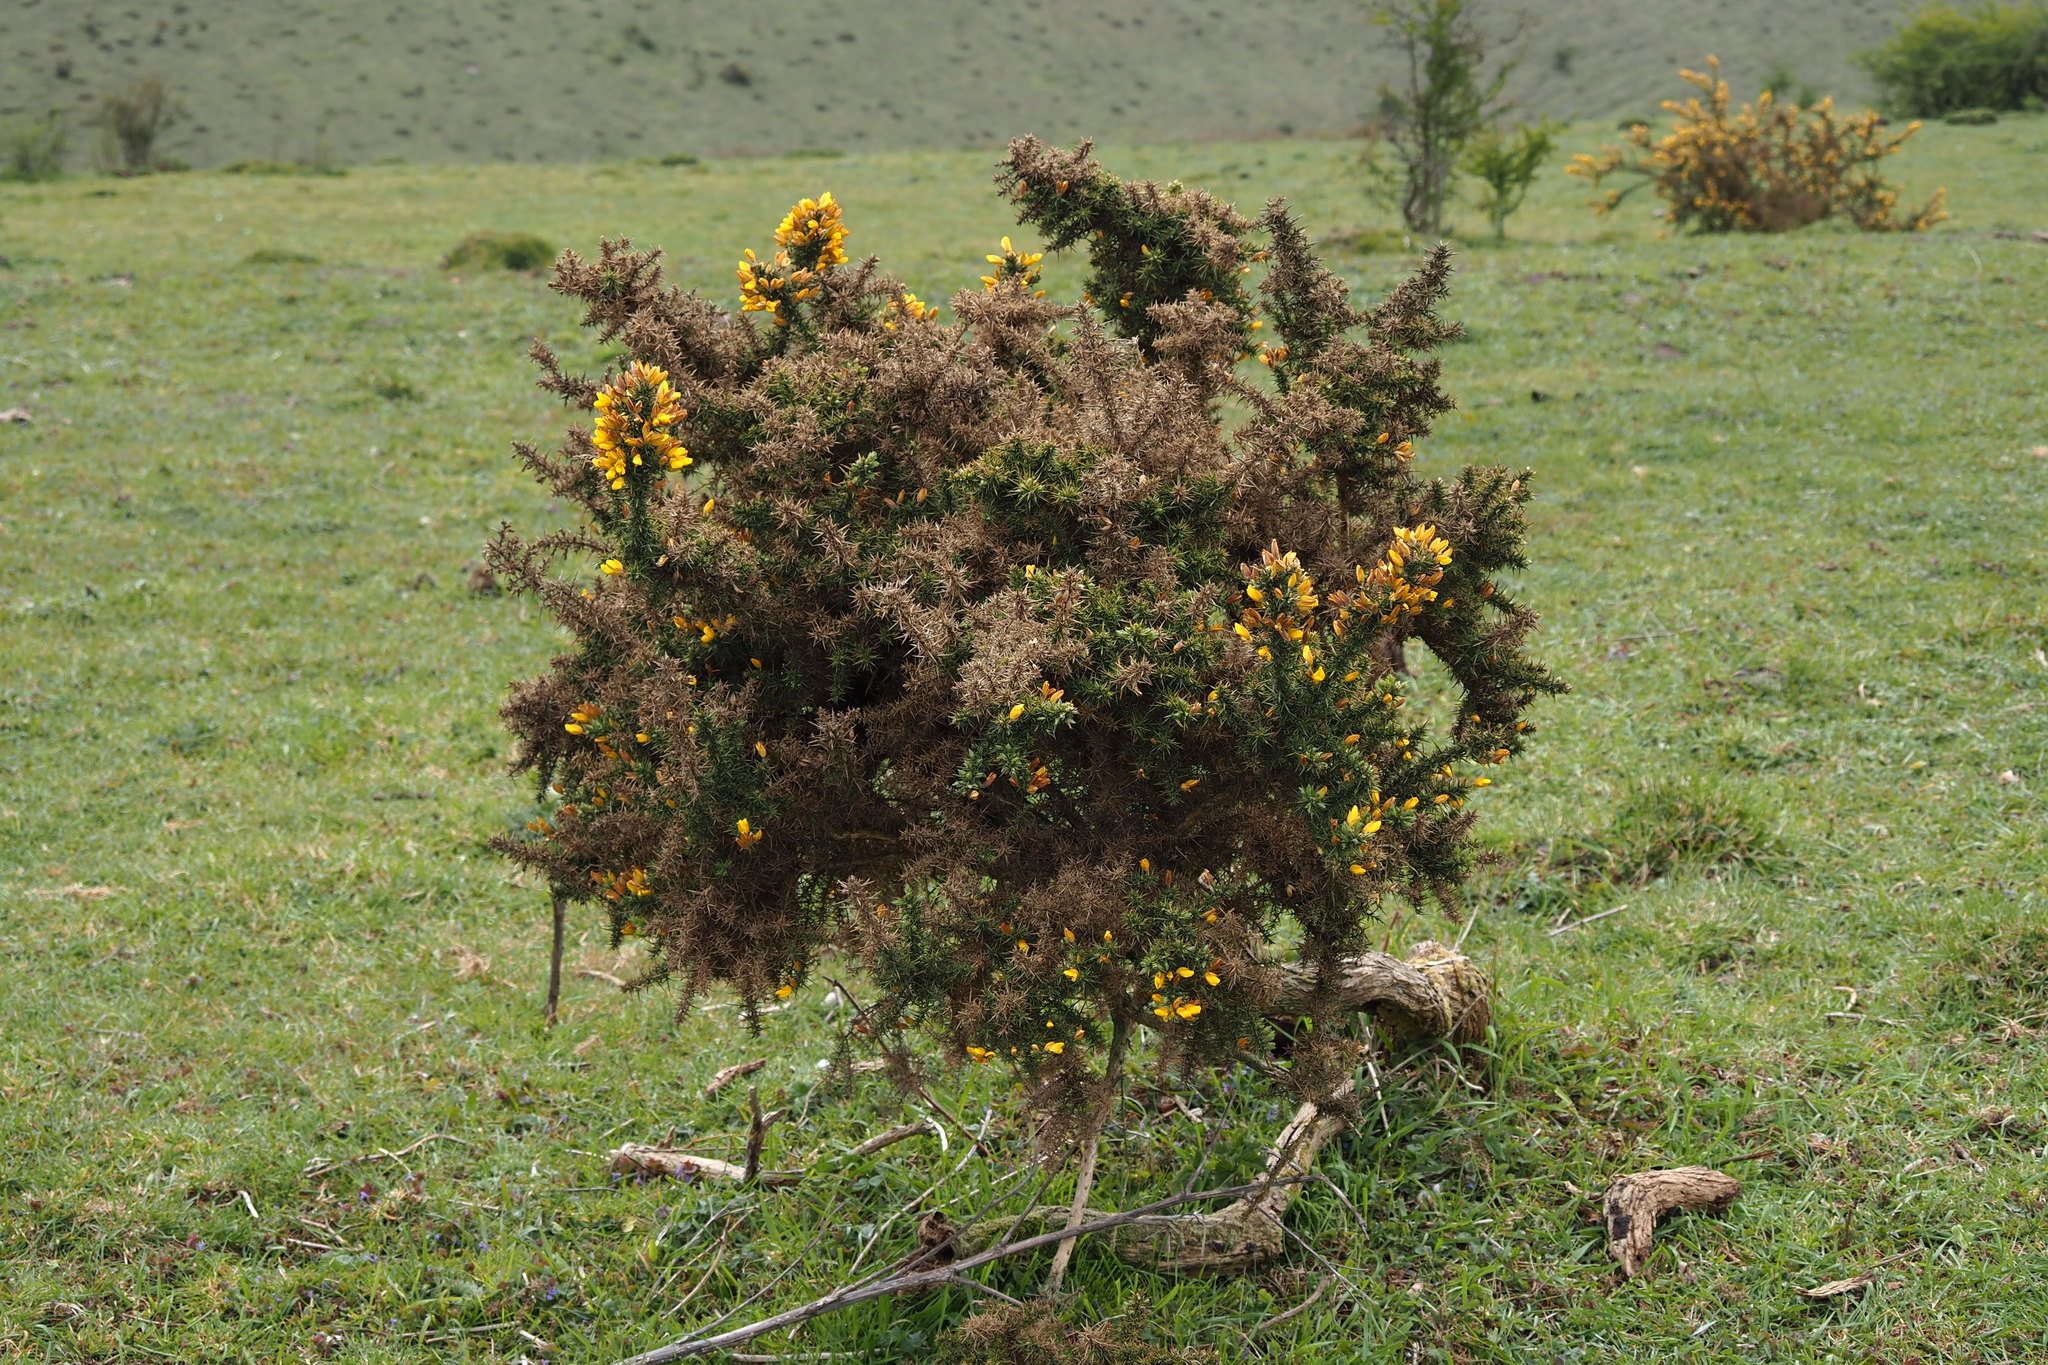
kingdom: Plantae
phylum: Tracheophyta
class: Magnoliopsida
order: Fabales
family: Fabaceae
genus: Ulex
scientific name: Ulex europaeus
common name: Common gorse
